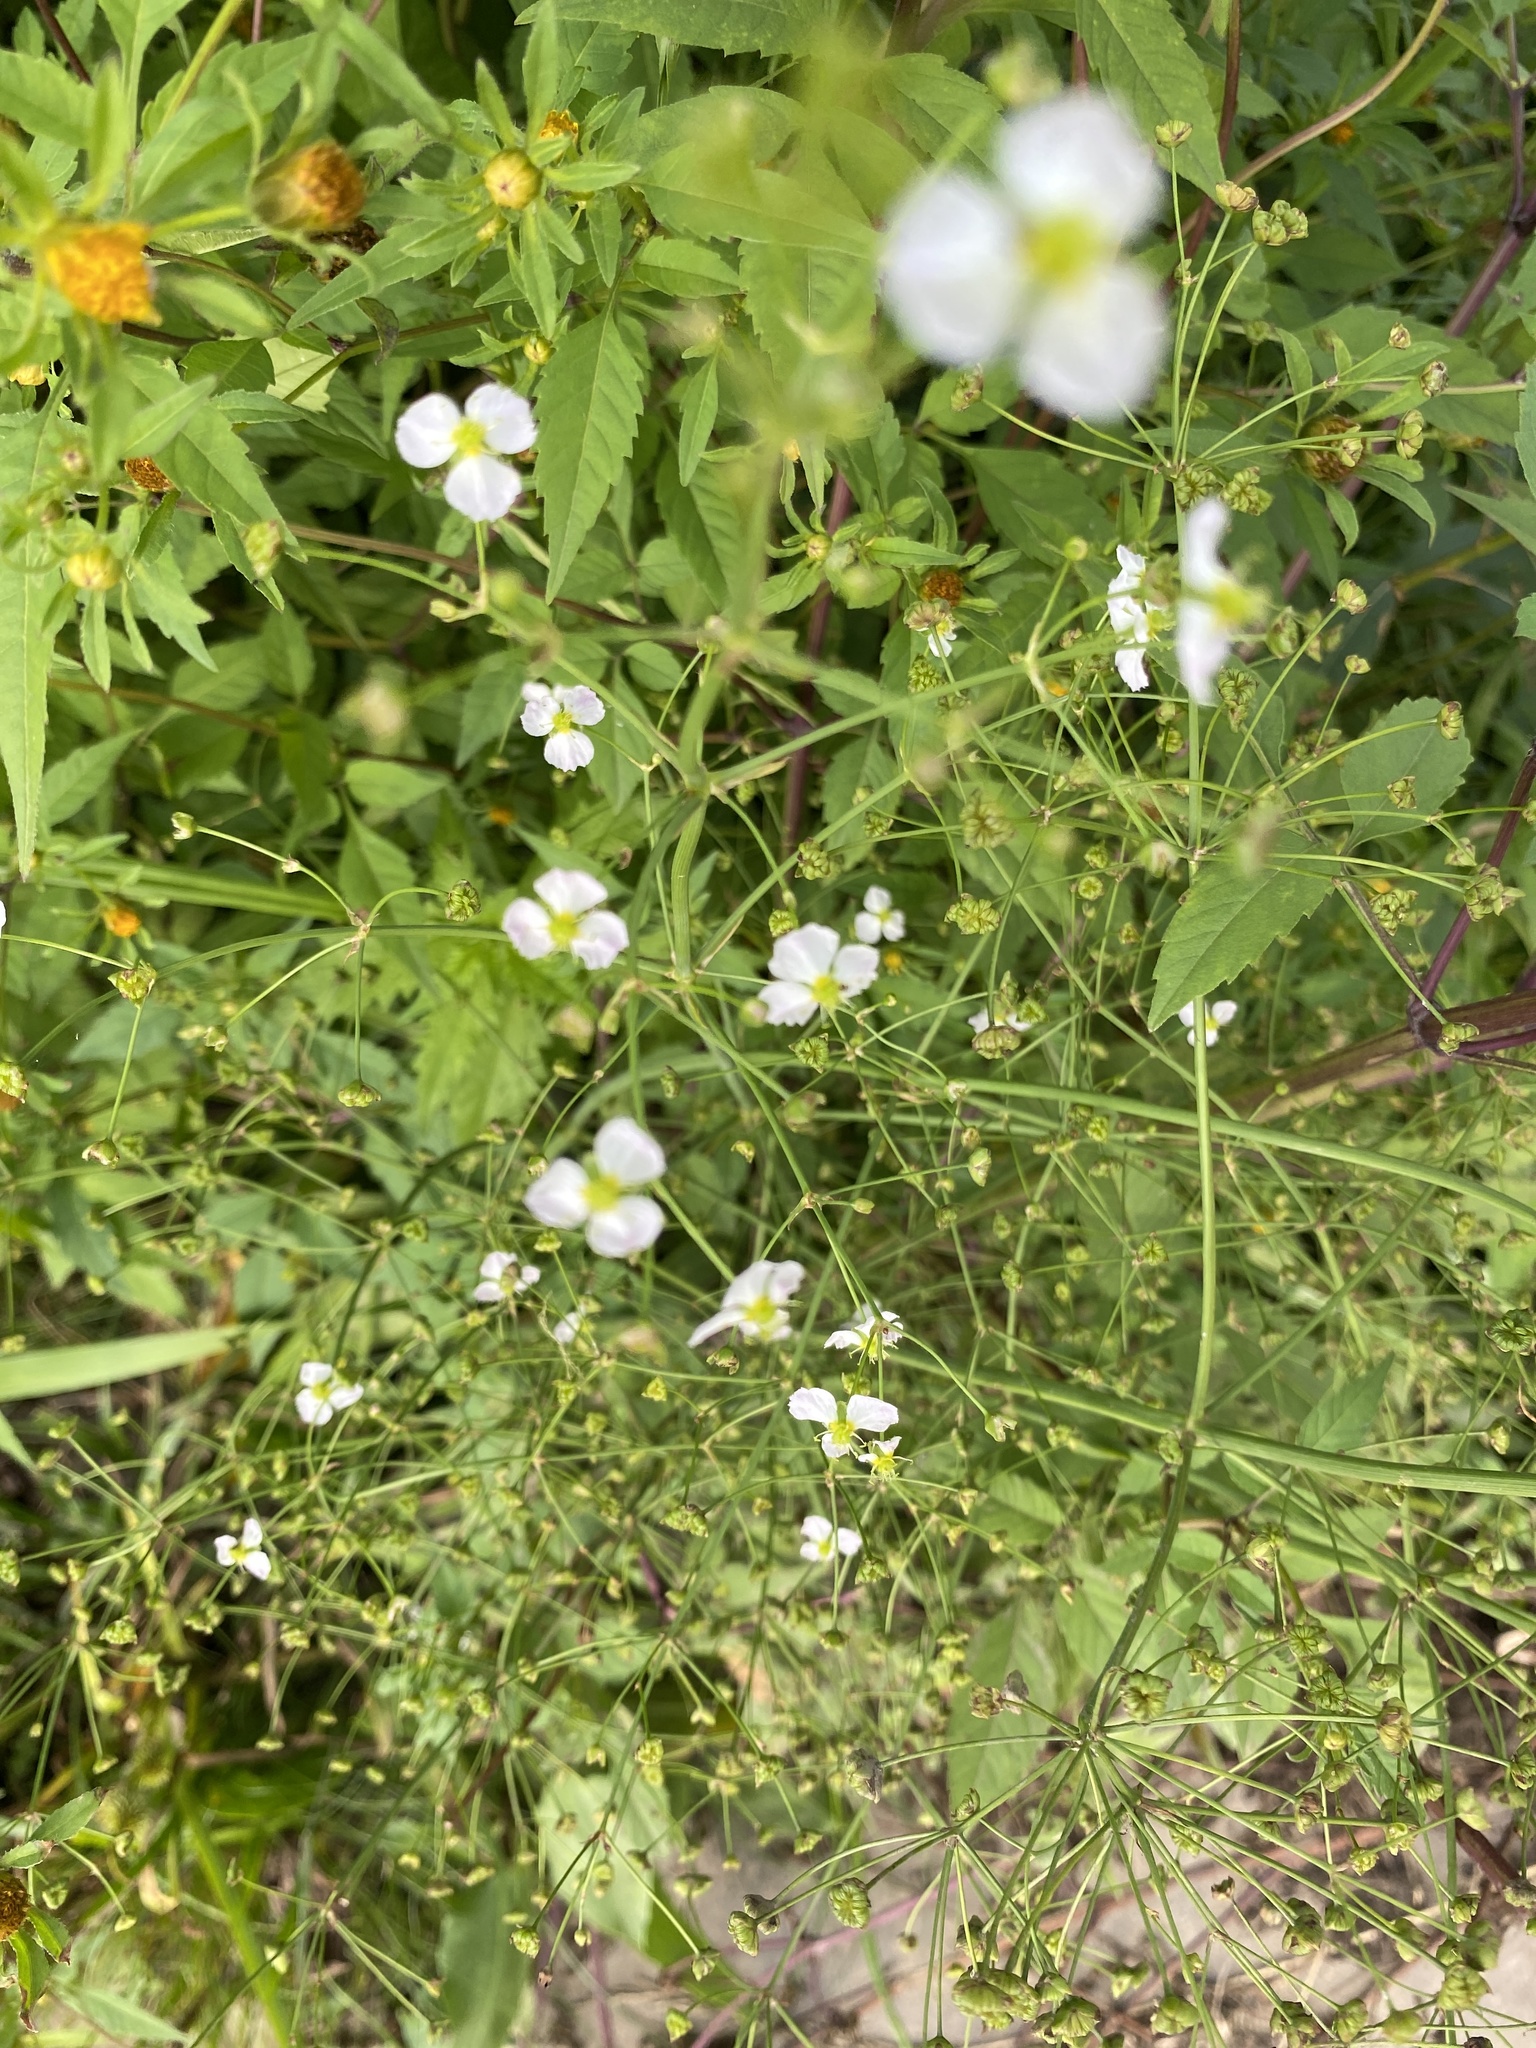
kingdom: Plantae
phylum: Tracheophyta
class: Liliopsida
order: Alismatales
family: Alismataceae
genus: Alisma
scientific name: Alisma plantago-aquatica
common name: Water-plantain
